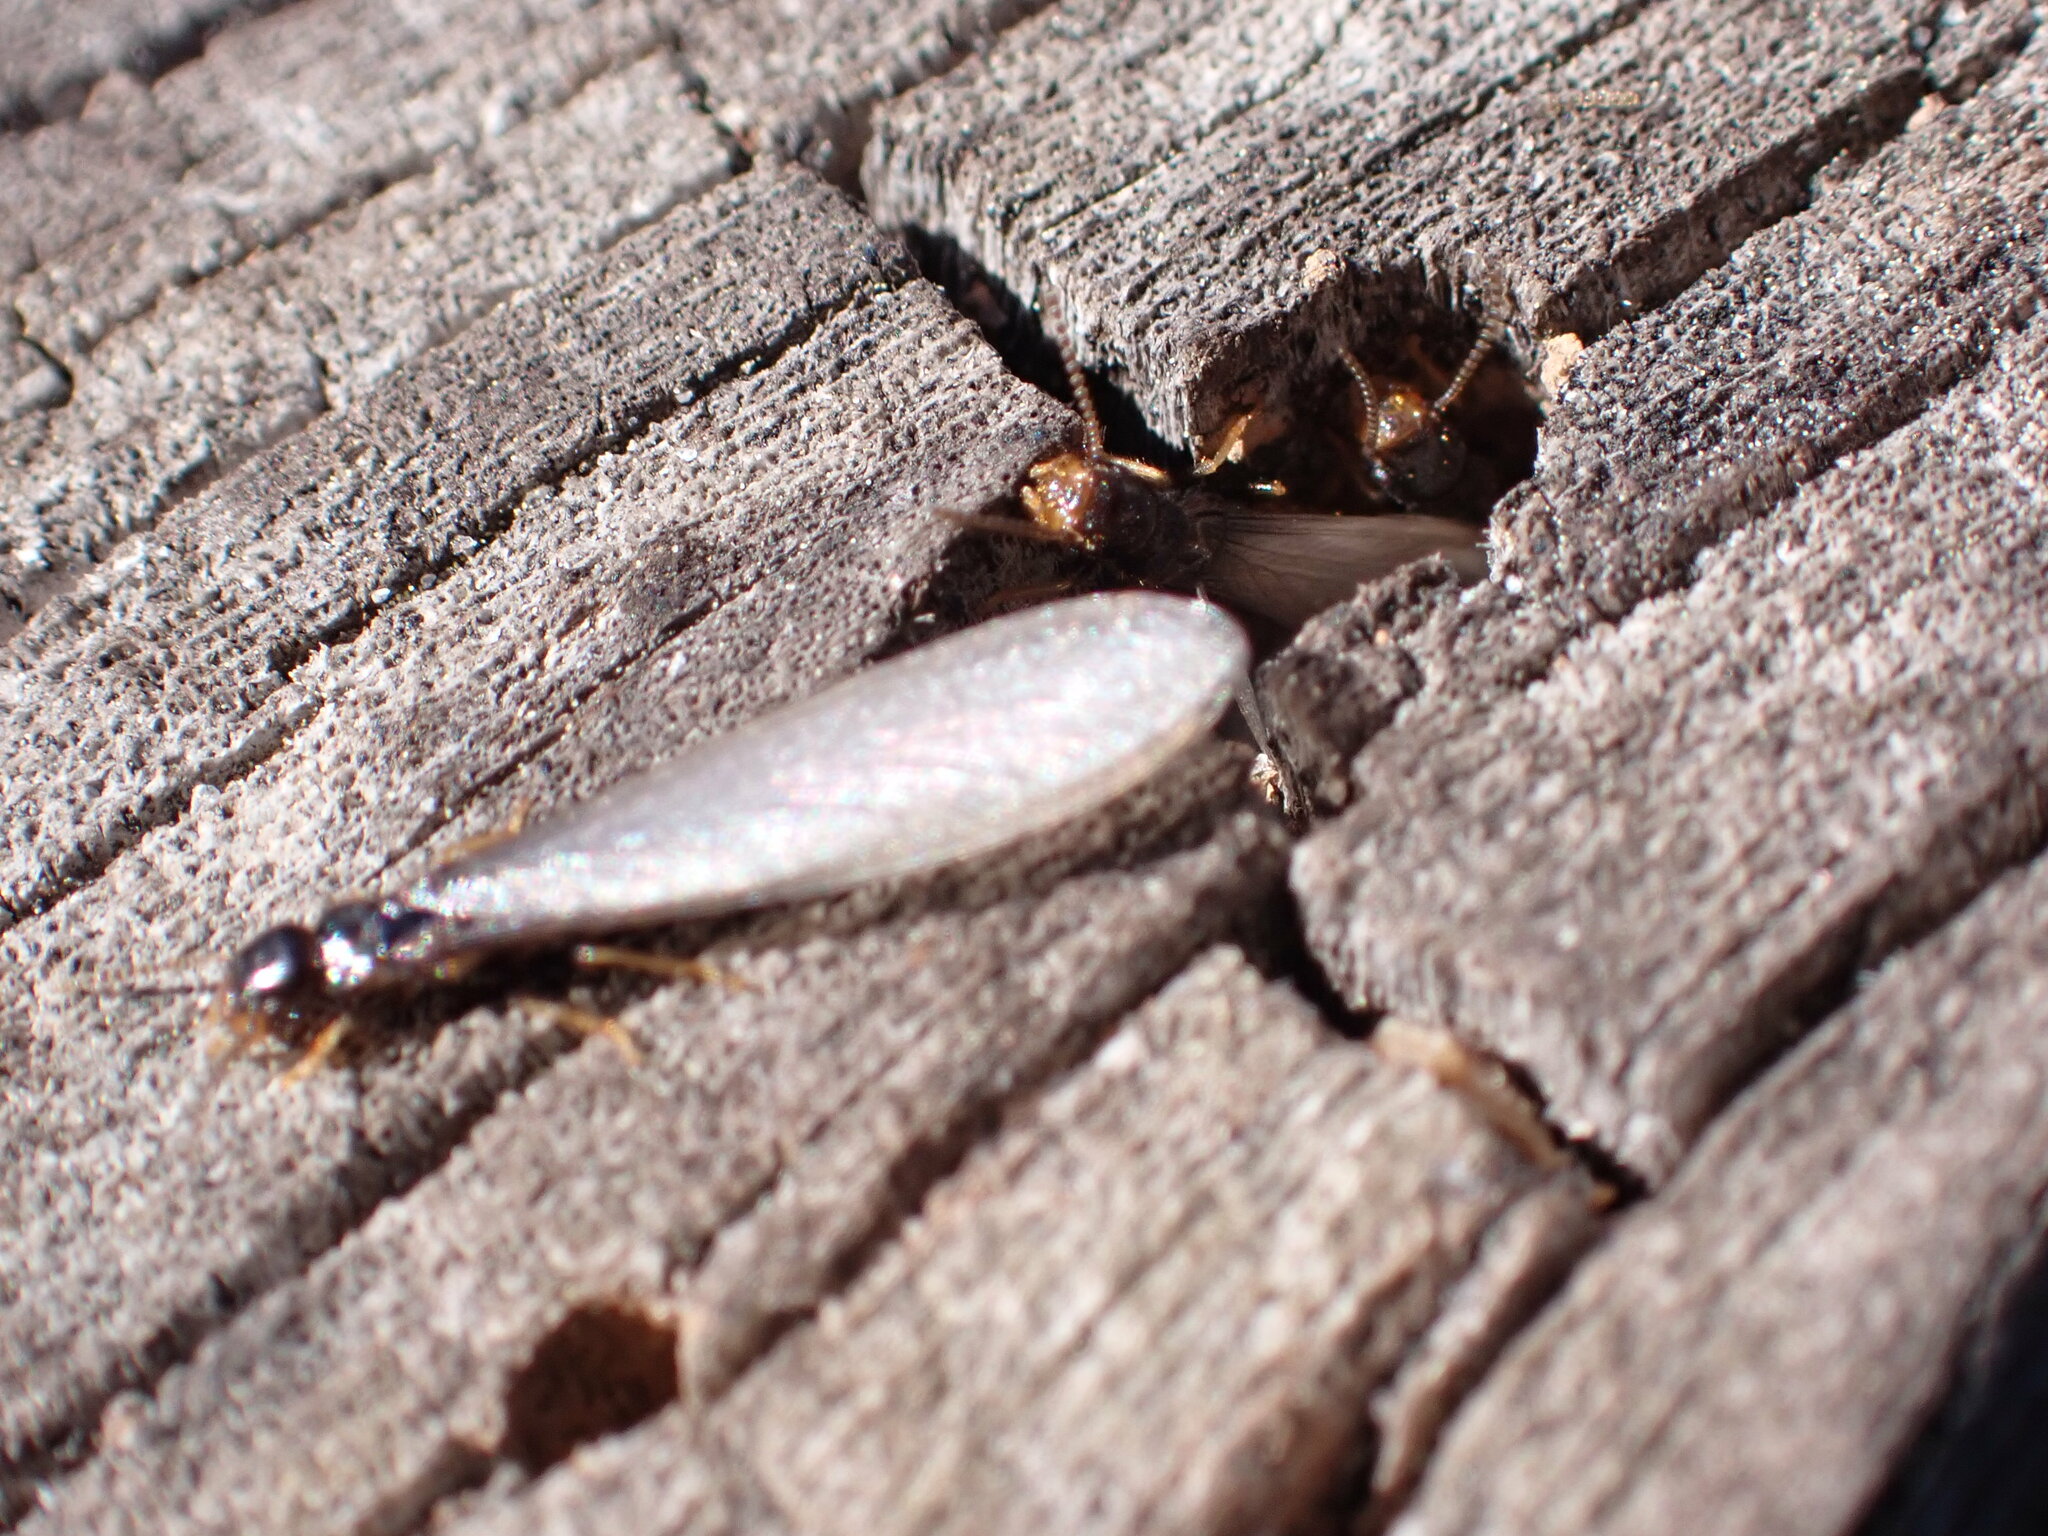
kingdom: Animalia
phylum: Arthropoda
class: Insecta
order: Blattodea
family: Rhinotermitidae
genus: Reticulitermes
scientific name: Reticulitermes flavipes
